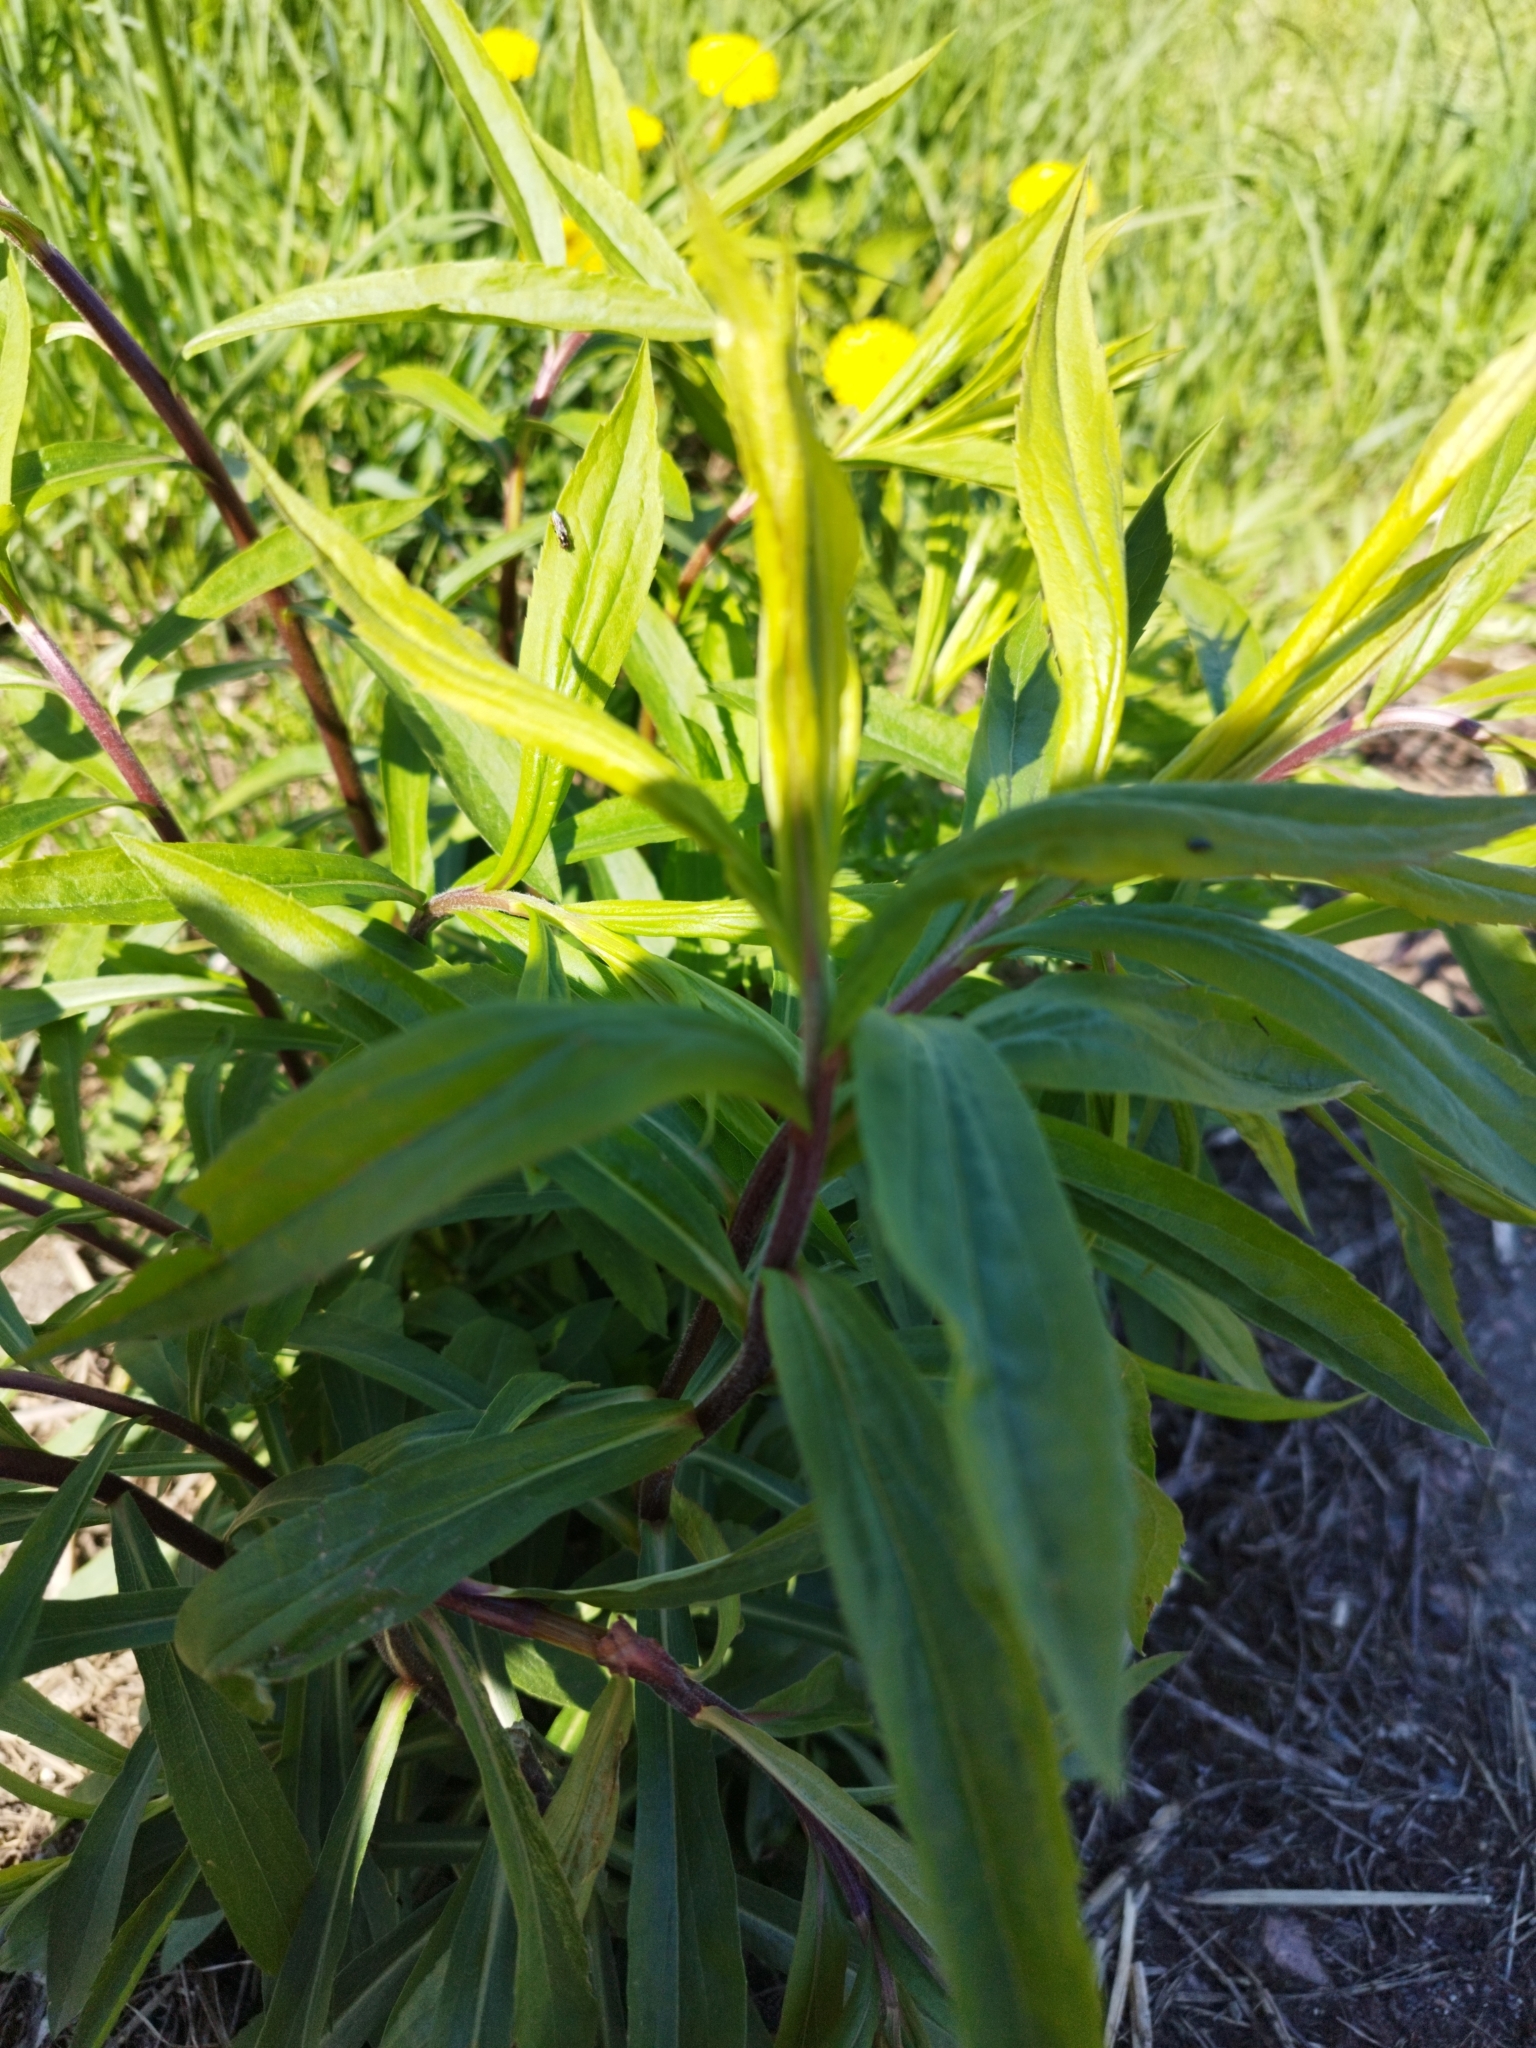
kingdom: Plantae
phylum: Tracheophyta
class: Magnoliopsida
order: Asterales
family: Asteraceae
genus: Solidago
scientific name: Solidago canadensis
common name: Canada goldenrod
